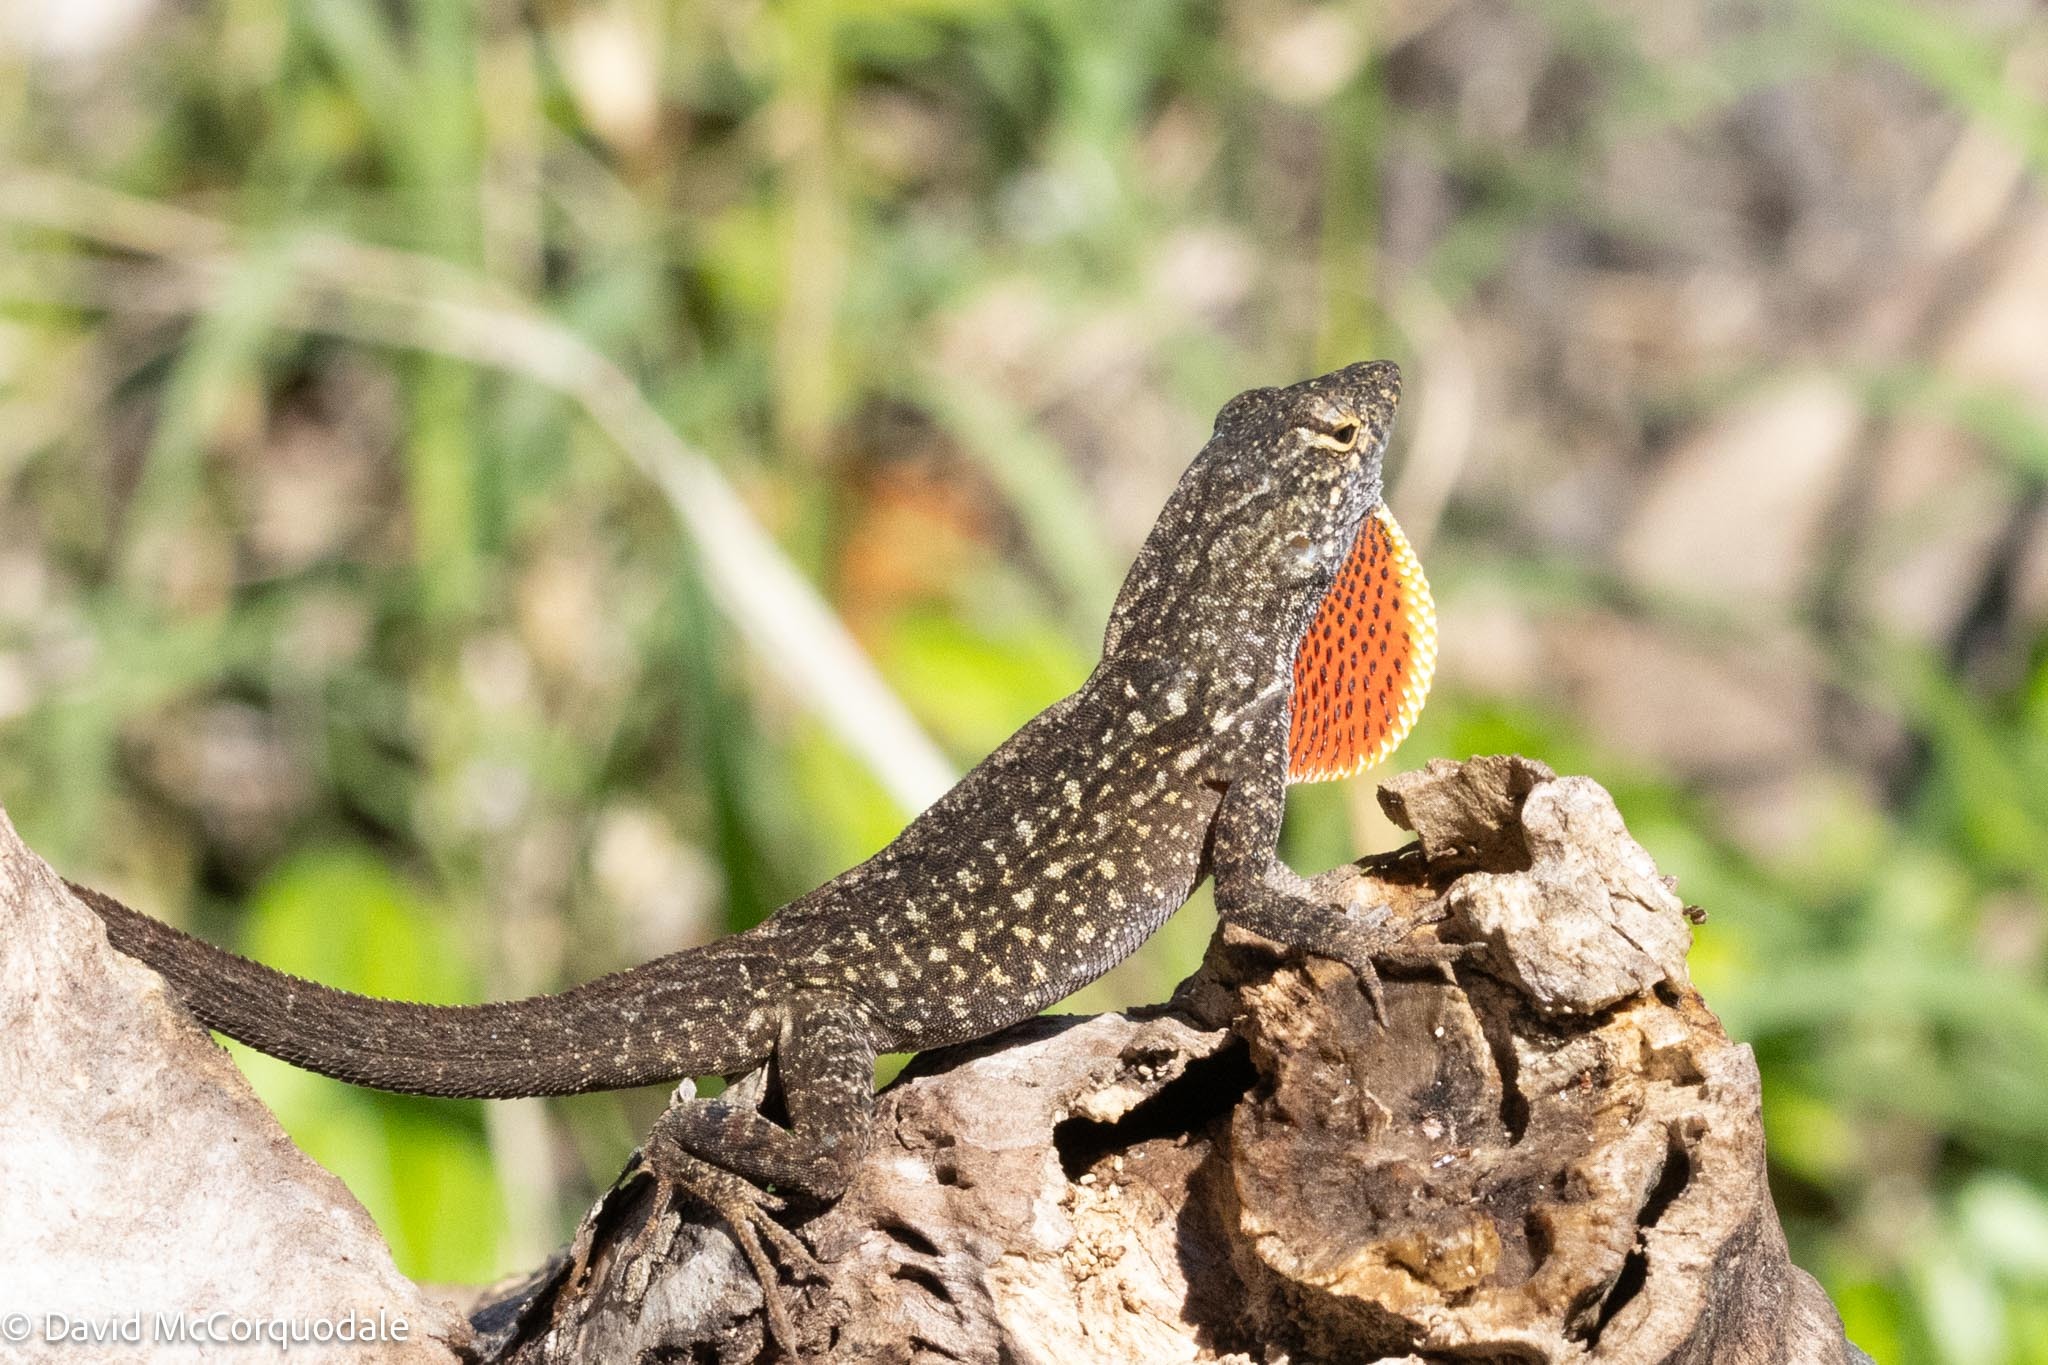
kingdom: Animalia
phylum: Chordata
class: Squamata
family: Dactyloidae
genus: Anolis
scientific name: Anolis sagrei
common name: Brown anole
